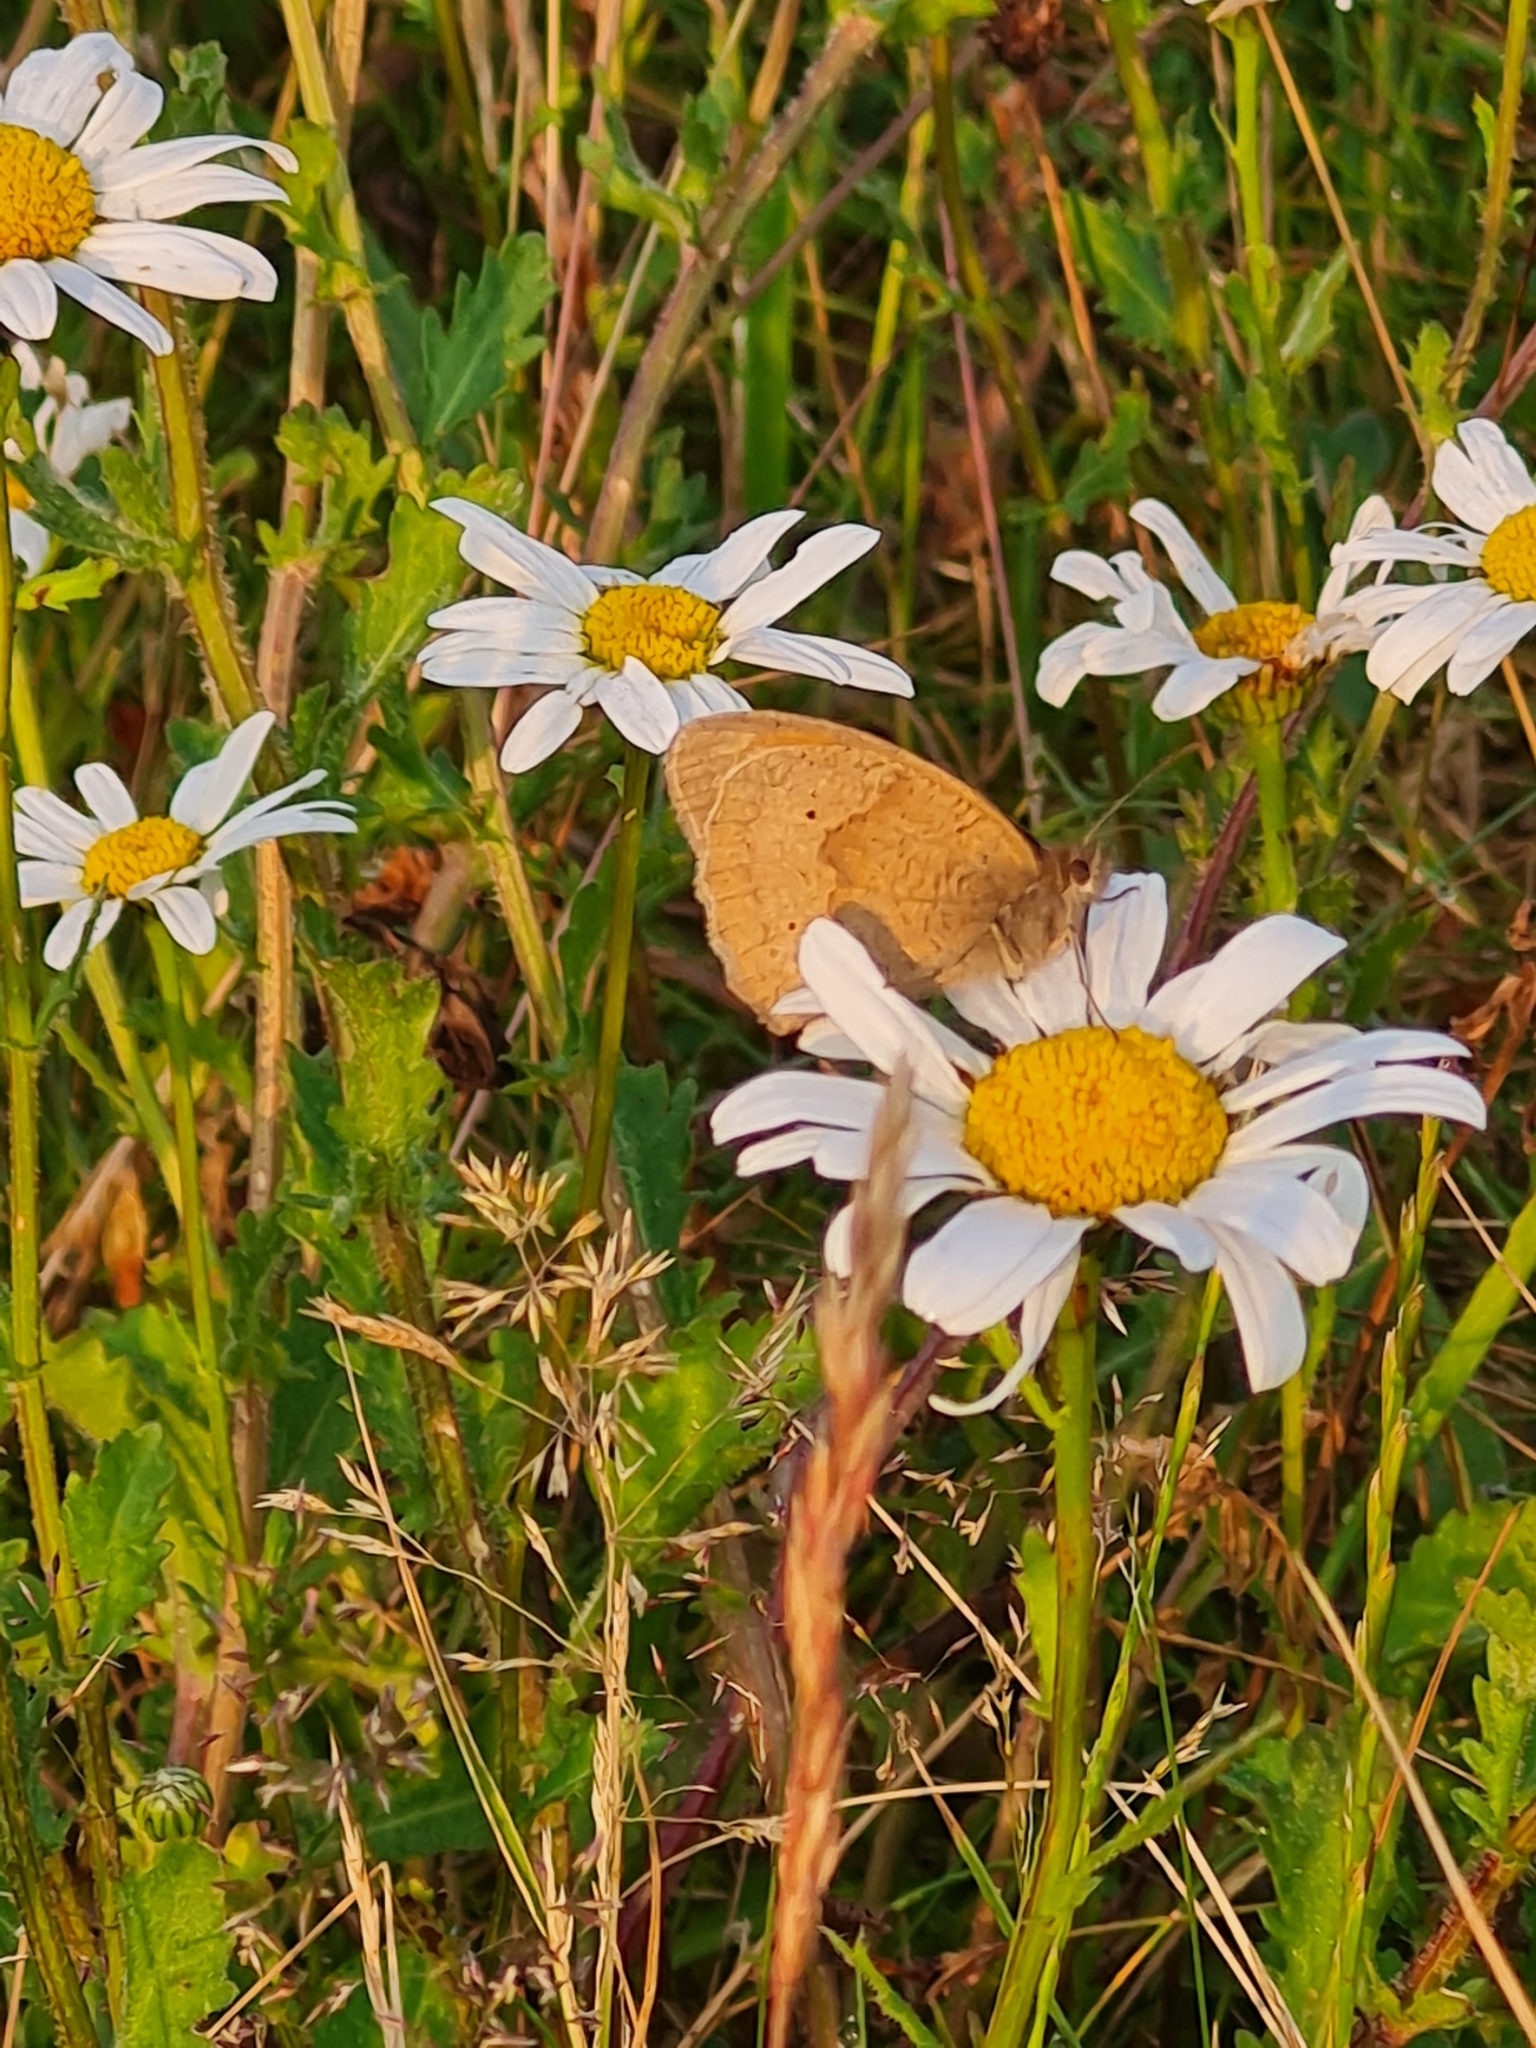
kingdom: Animalia
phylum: Arthropoda
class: Insecta
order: Lepidoptera
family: Nymphalidae
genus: Maniola
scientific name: Maniola jurtina
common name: Meadow brown
